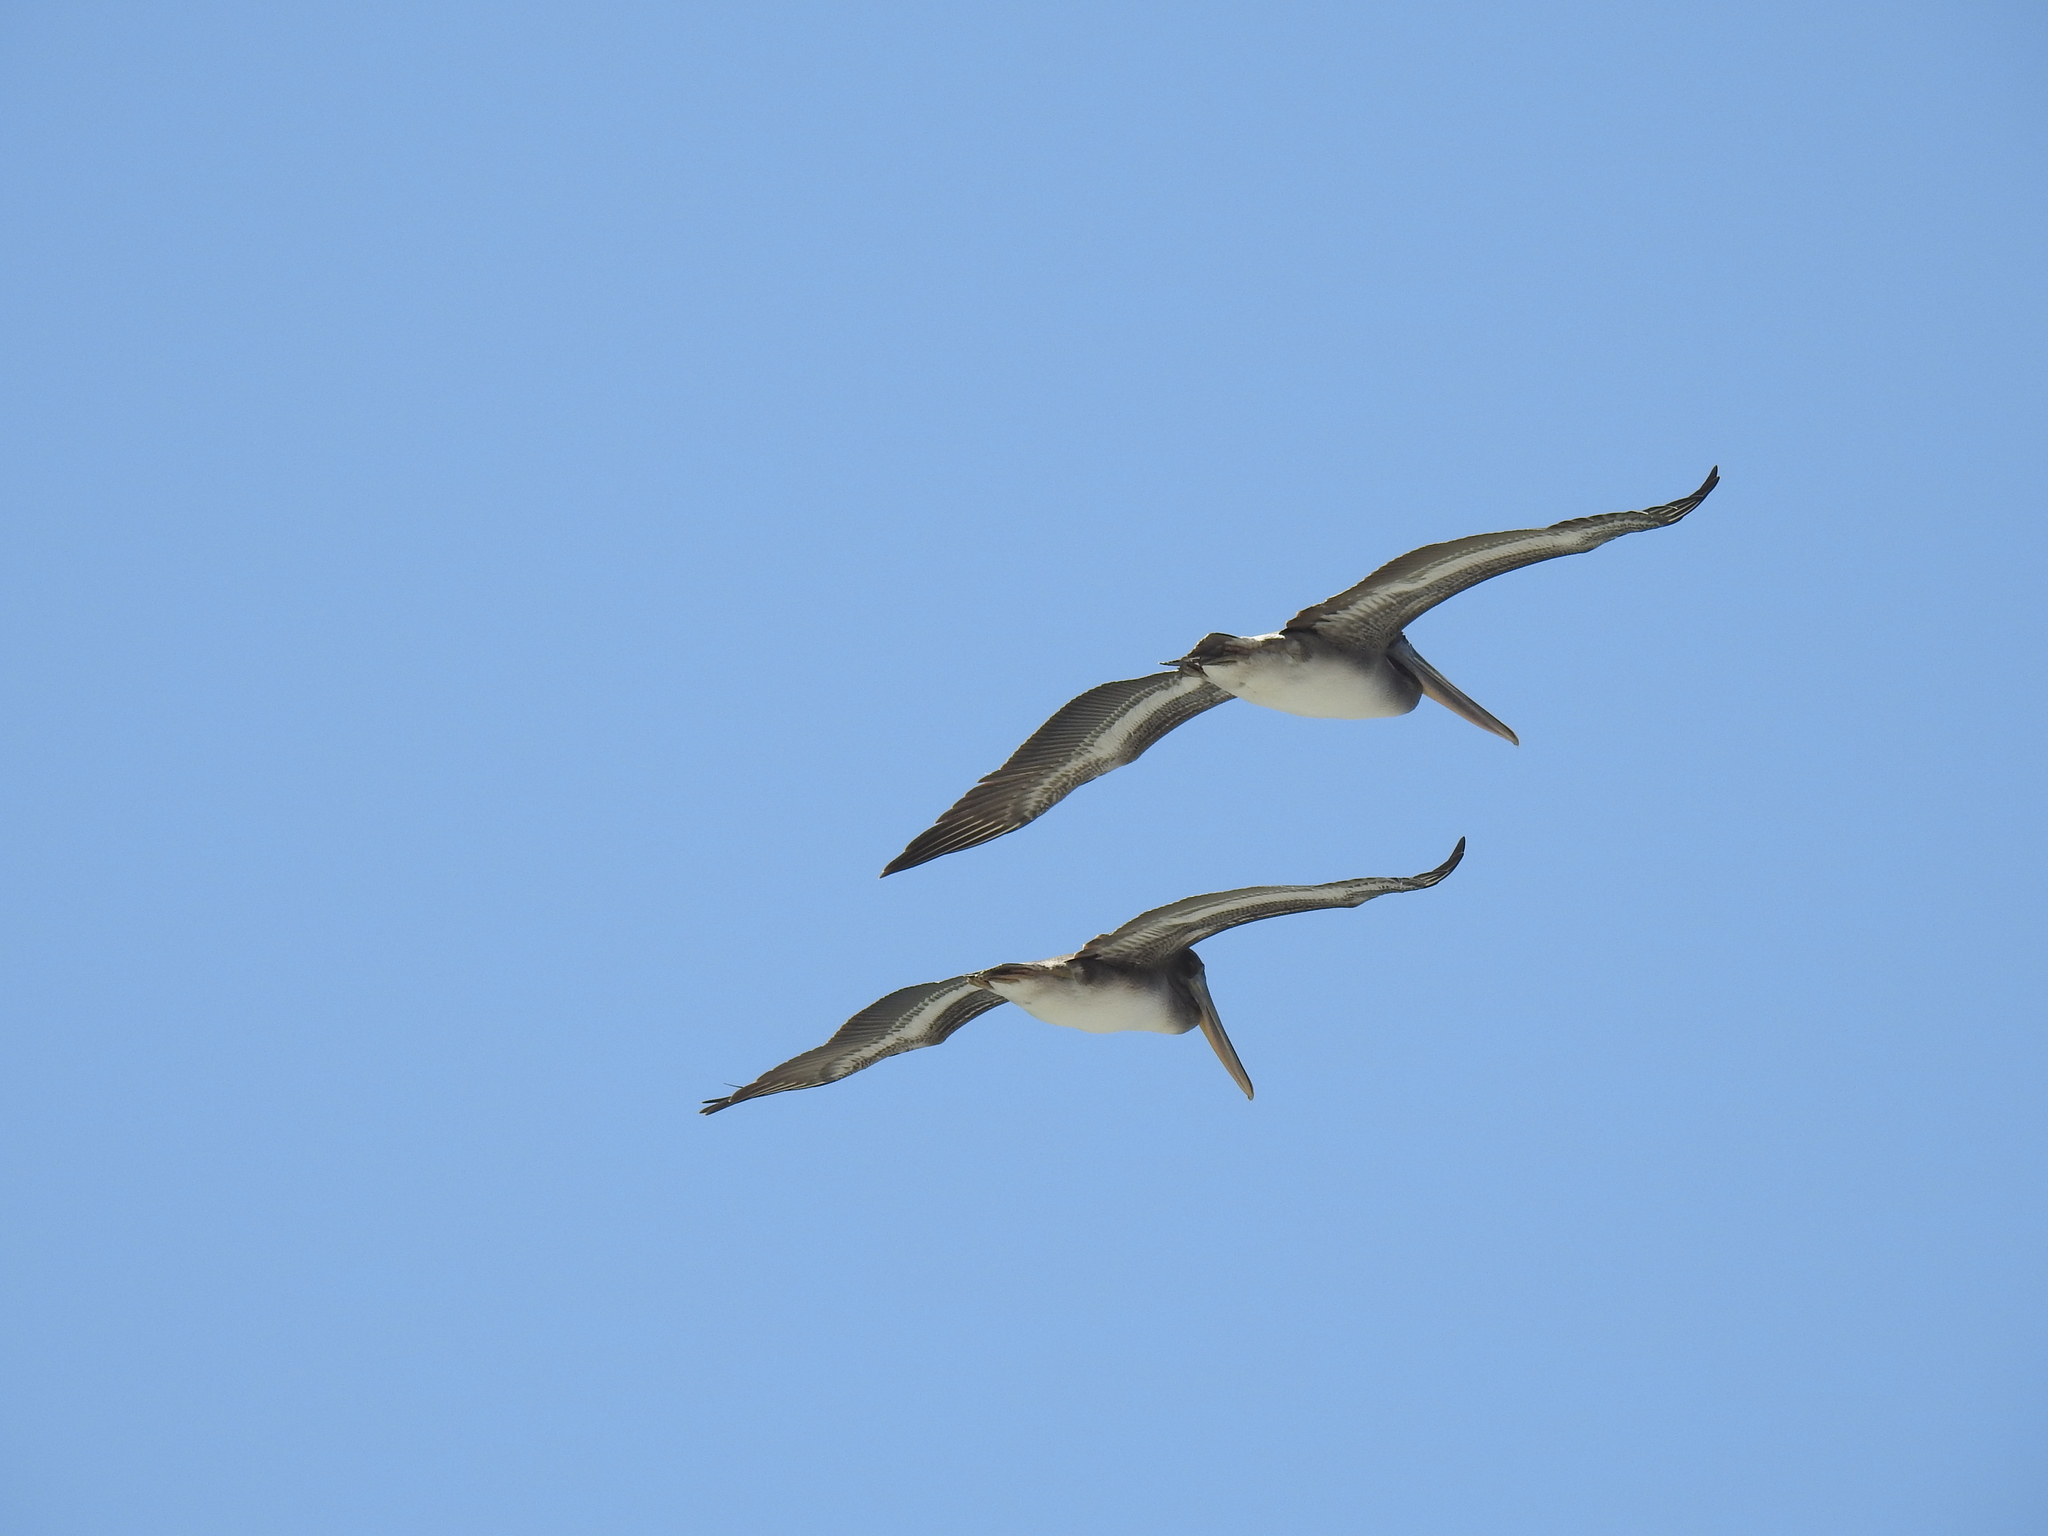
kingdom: Animalia
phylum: Chordata
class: Aves
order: Pelecaniformes
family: Pelecanidae
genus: Pelecanus
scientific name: Pelecanus occidentalis
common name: Brown pelican
